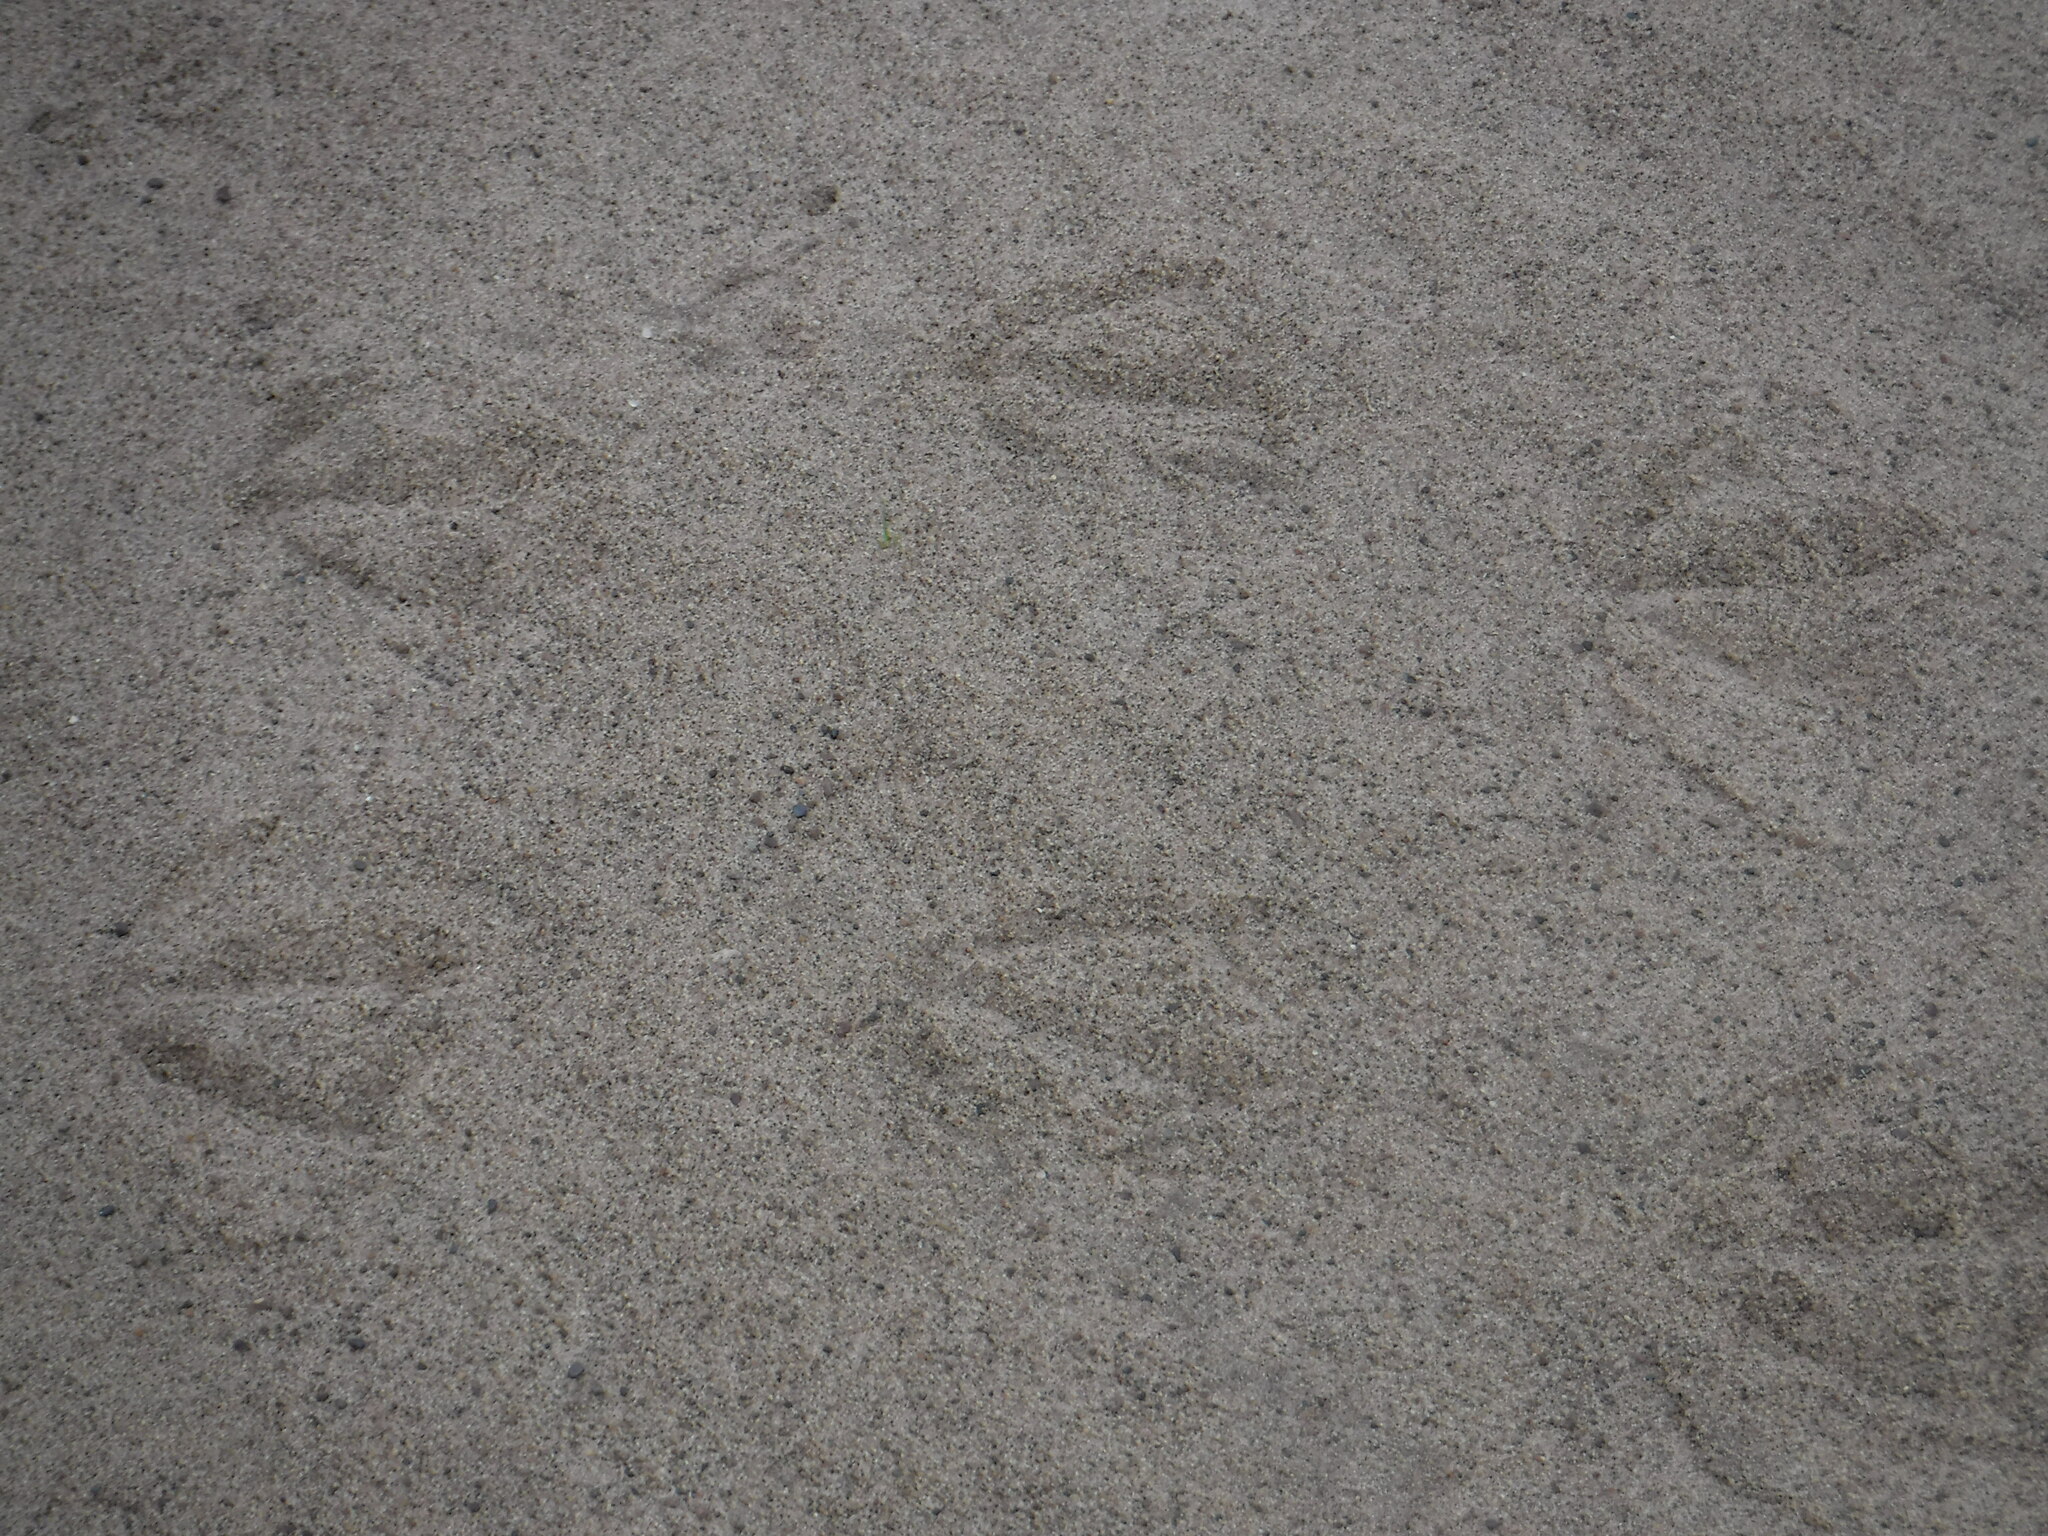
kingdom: Animalia
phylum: Chordata
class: Aves
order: Anseriformes
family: Anatidae
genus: Branta
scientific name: Branta canadensis
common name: Canada goose
